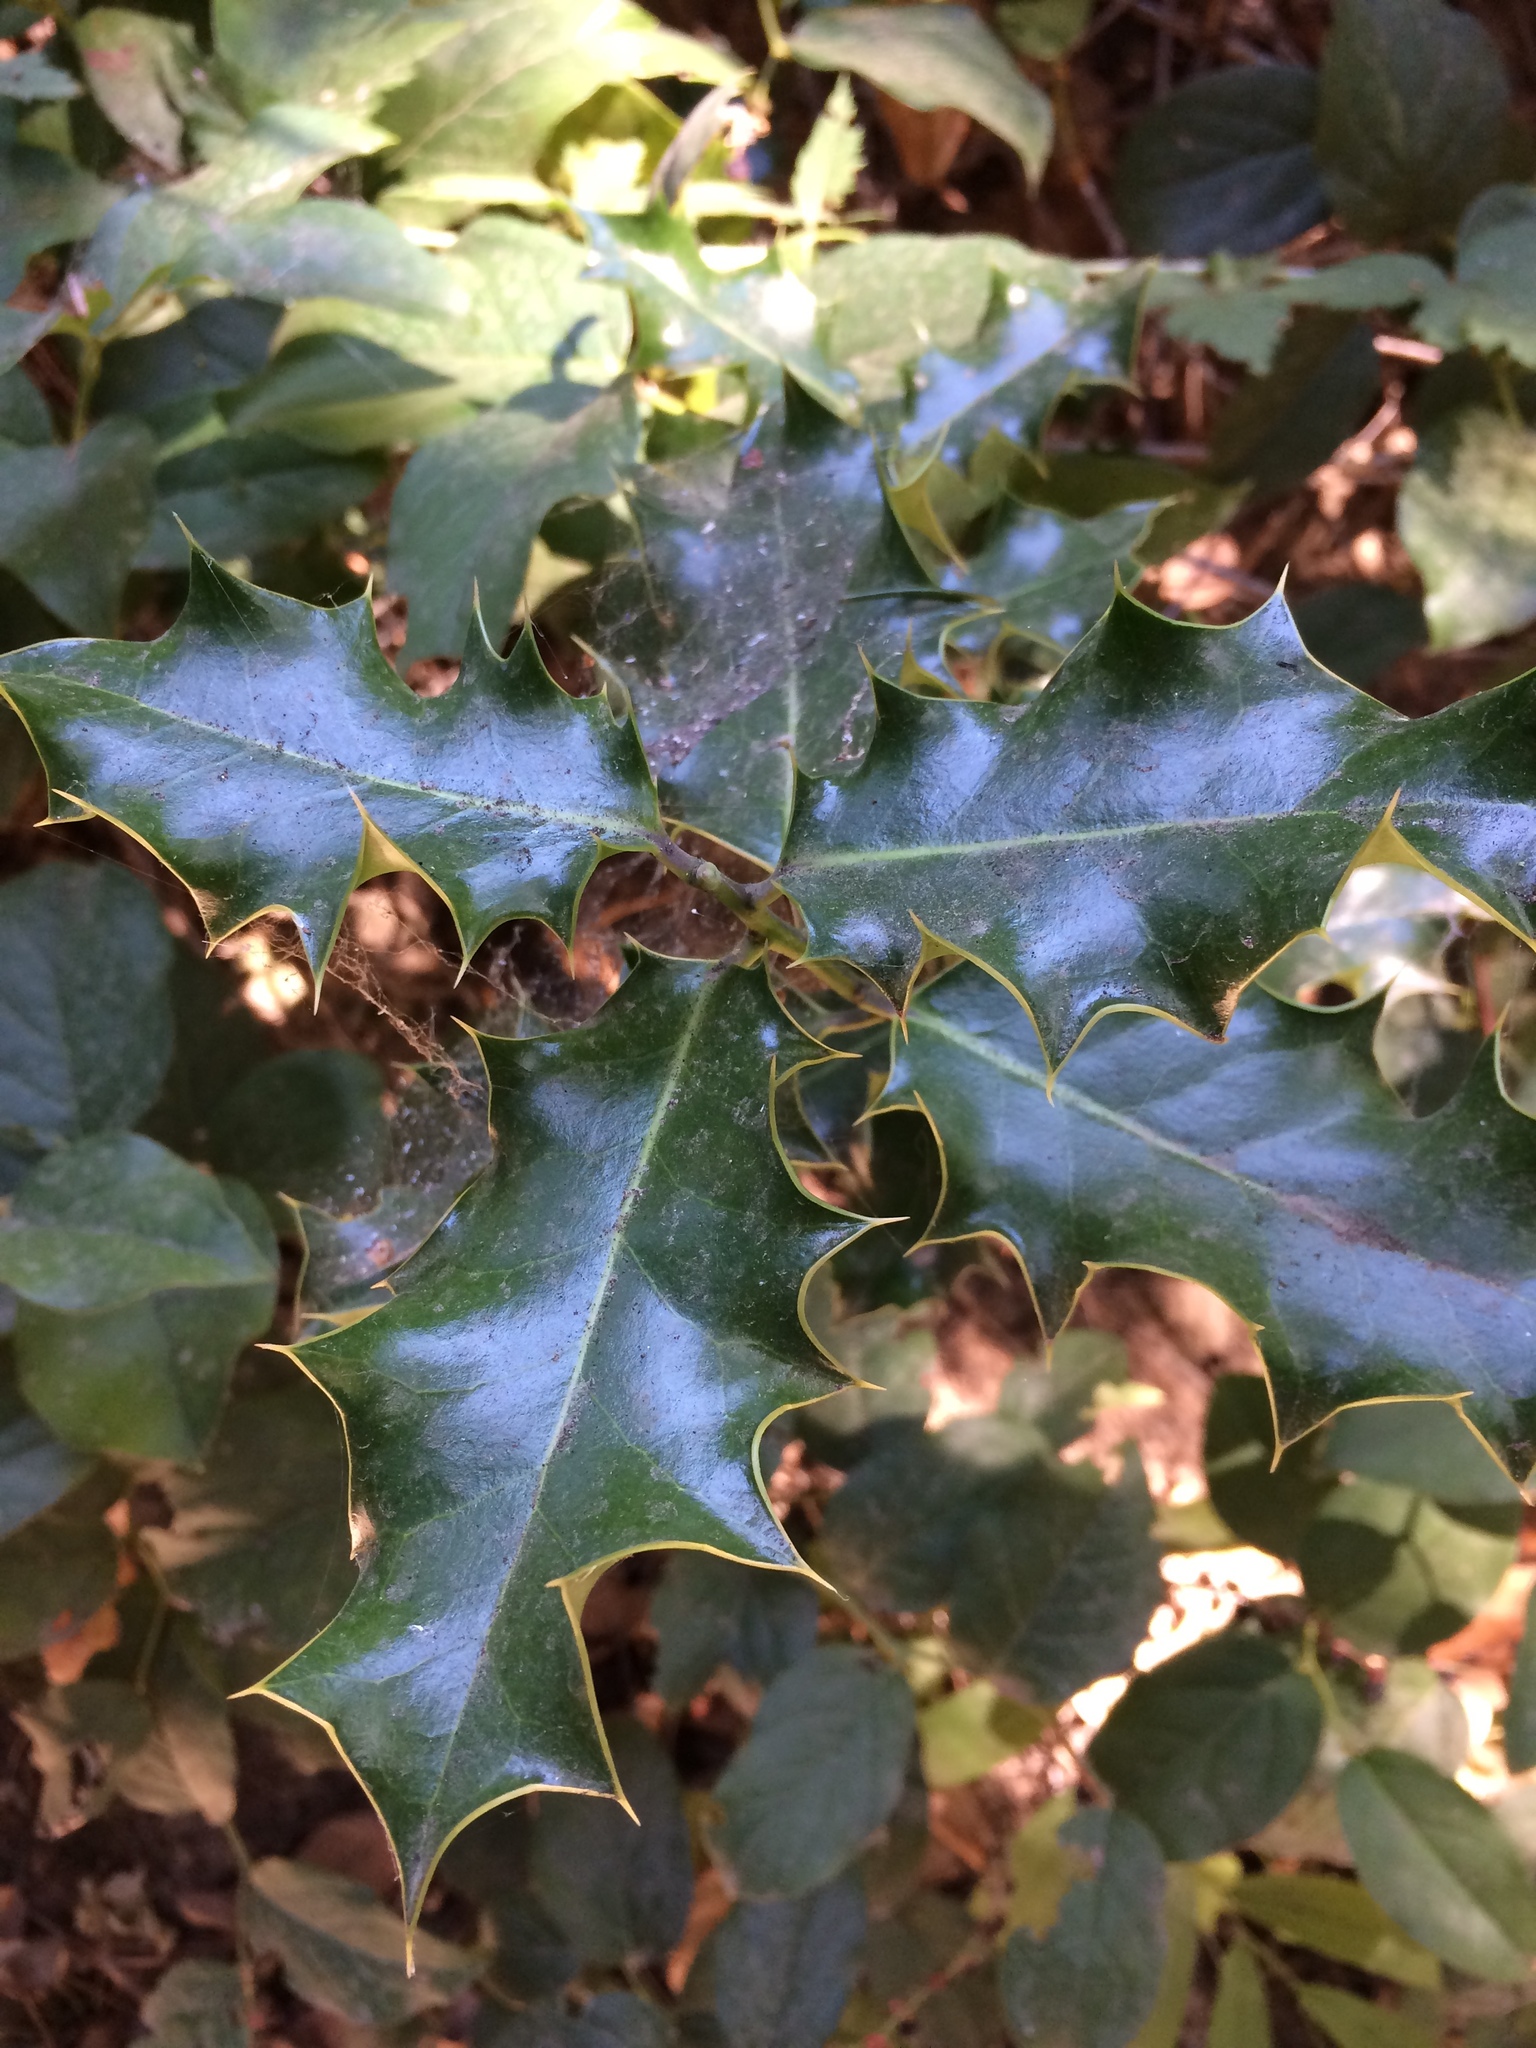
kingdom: Plantae
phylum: Tracheophyta
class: Magnoliopsida
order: Aquifoliales
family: Aquifoliaceae
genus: Ilex
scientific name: Ilex aquifolium
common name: English holly
